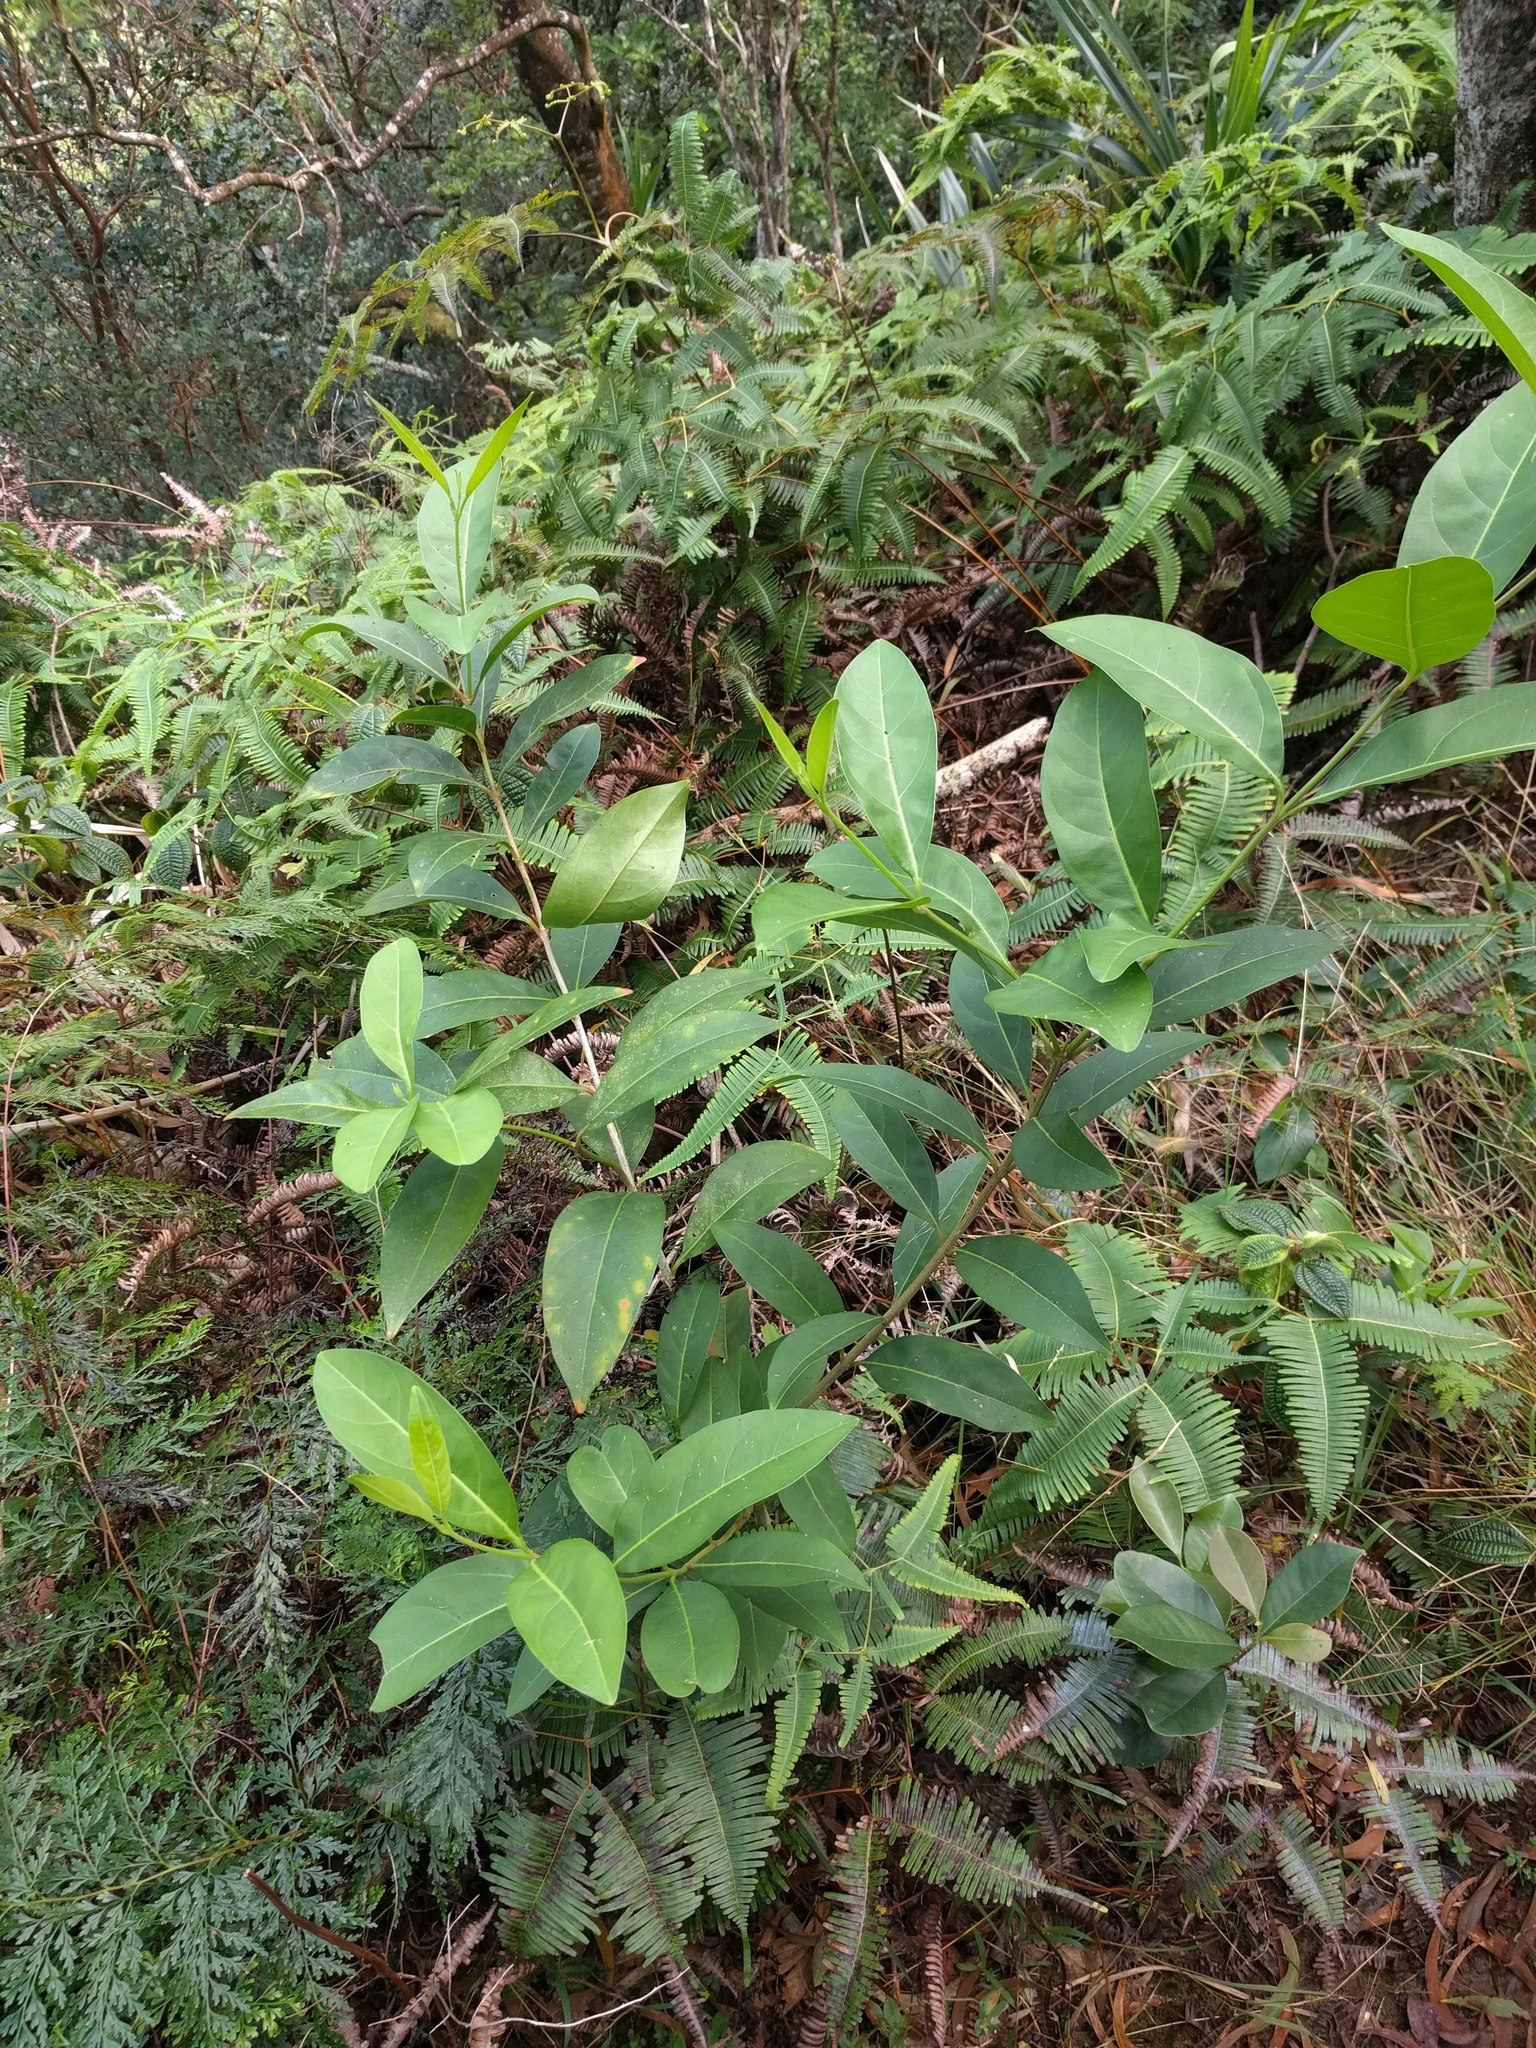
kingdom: Plantae
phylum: Tracheophyta
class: Magnoliopsida
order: Lamiales
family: Verbenaceae
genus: Citharexylum
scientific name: Citharexylum caudatum
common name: Fiddlewood
